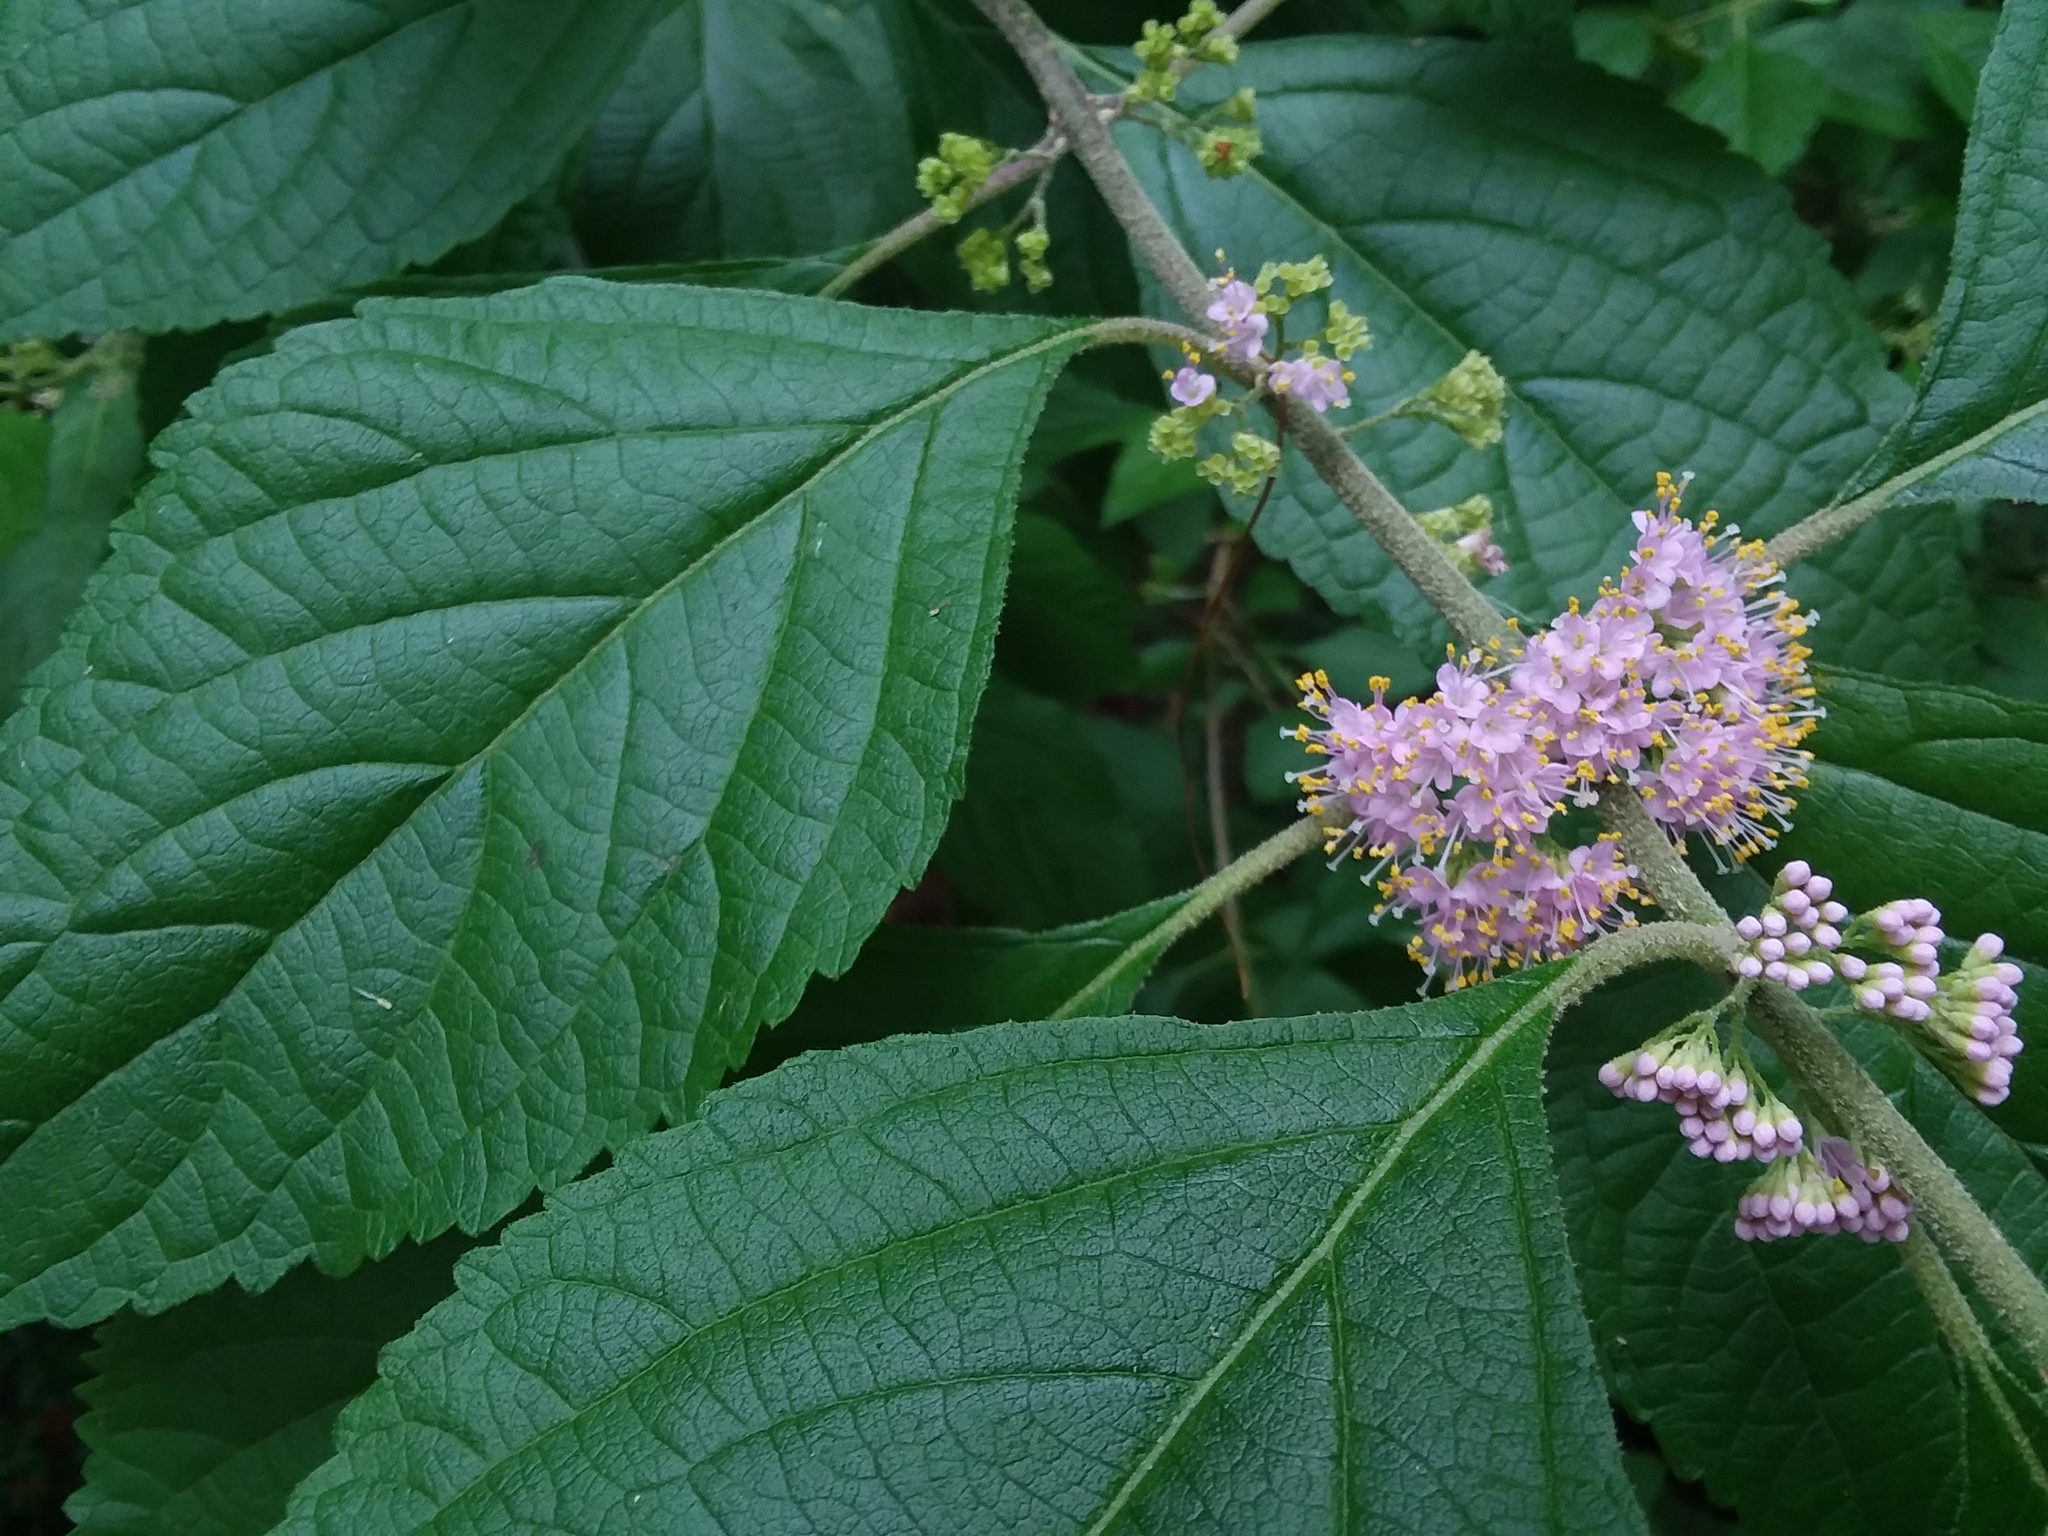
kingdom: Plantae
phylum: Tracheophyta
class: Magnoliopsida
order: Lamiales
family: Lamiaceae
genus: Callicarpa
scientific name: Callicarpa americana
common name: American beautyberry
